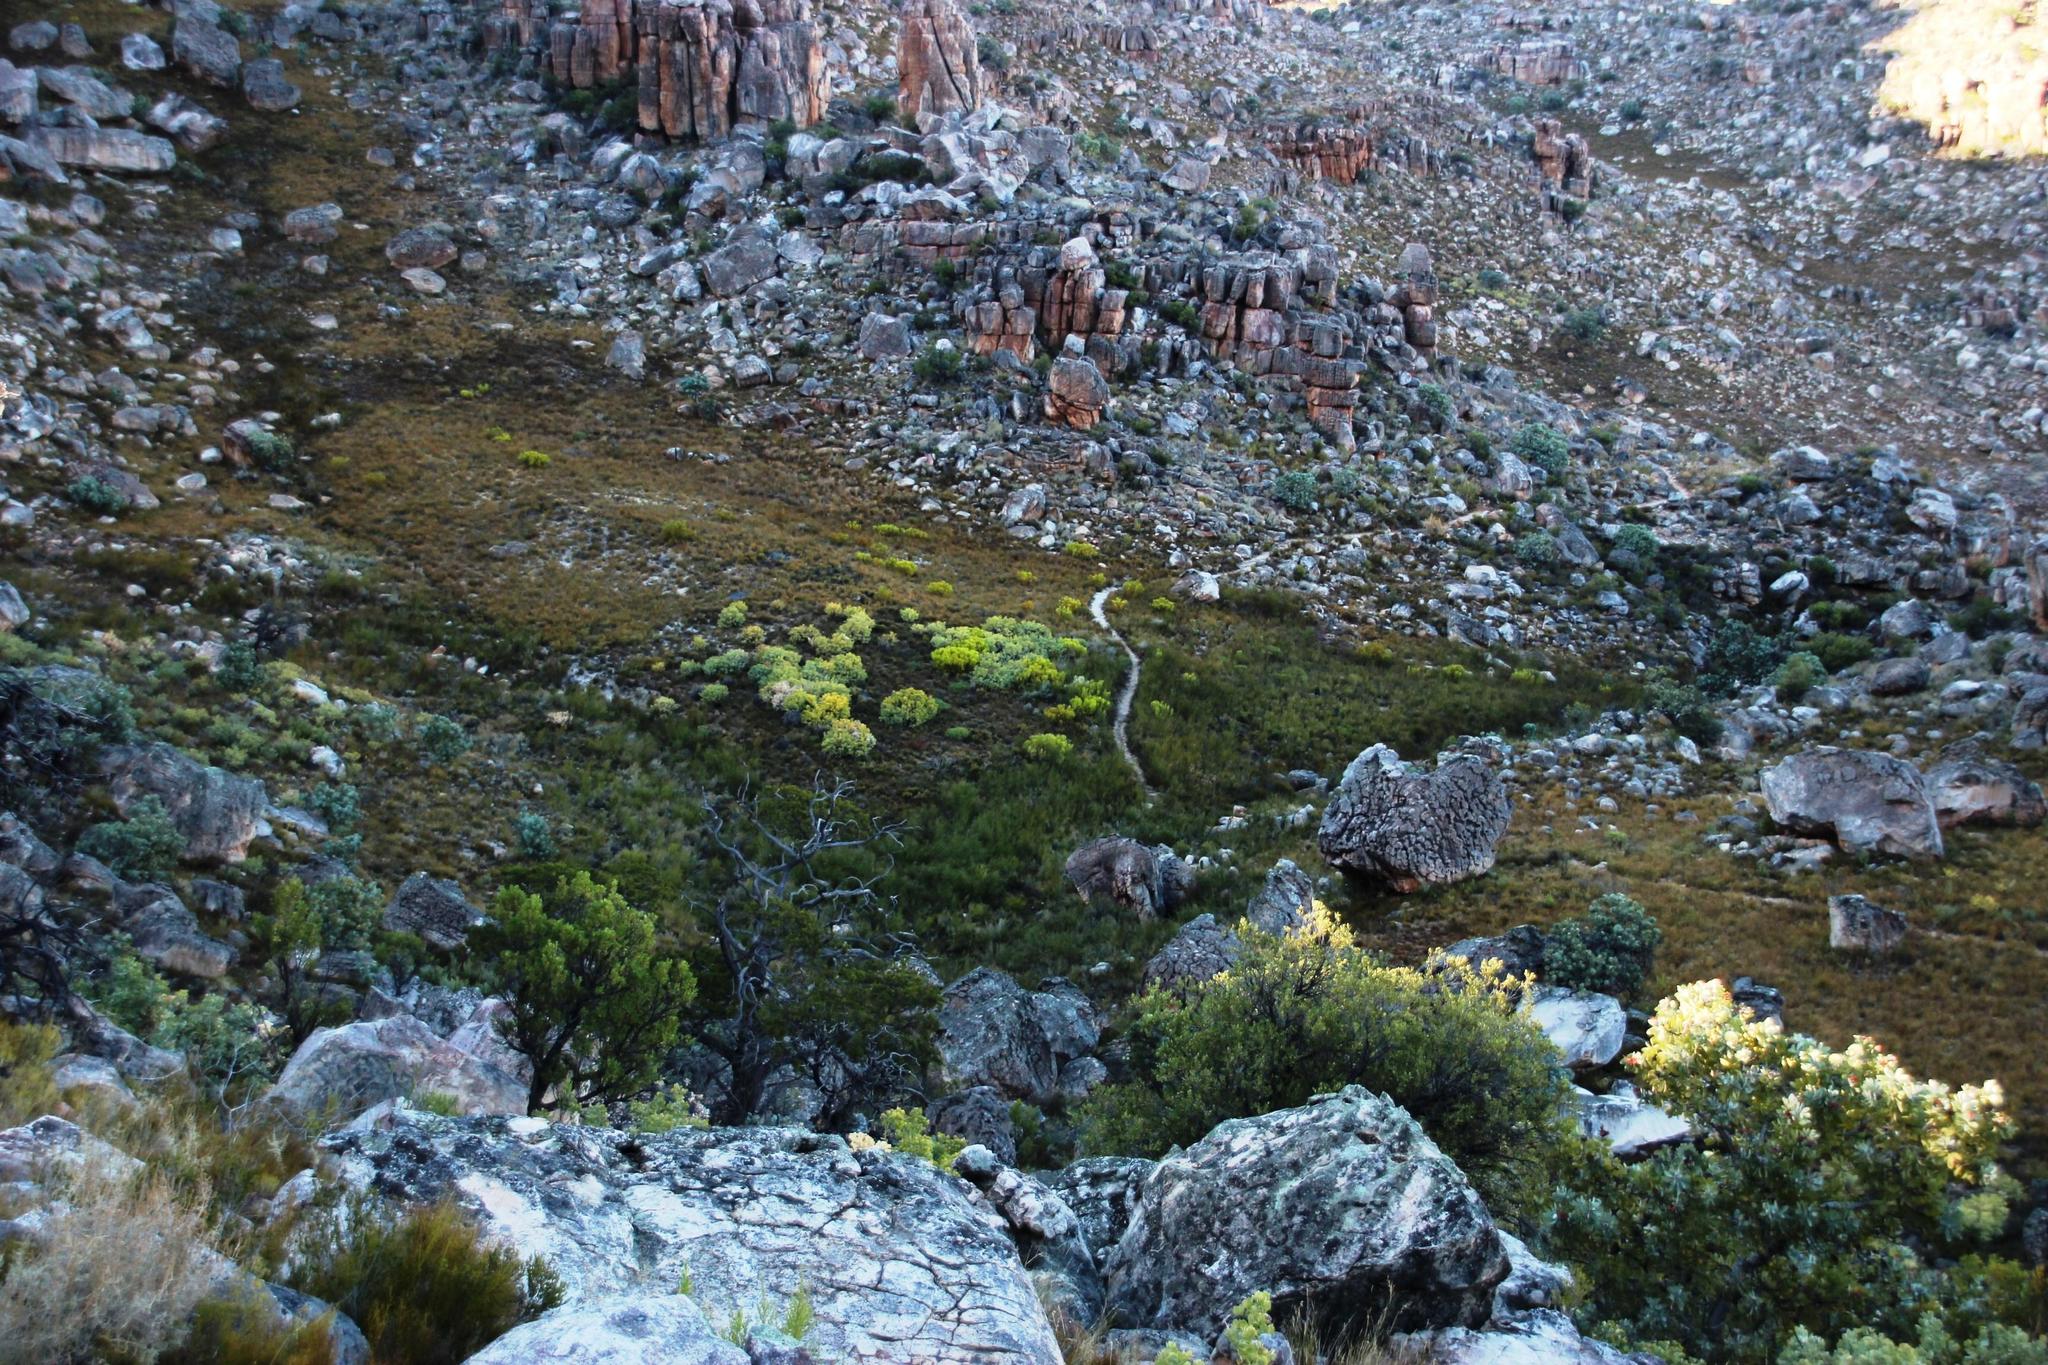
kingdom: Plantae
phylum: Tracheophyta
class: Magnoliopsida
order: Proteales
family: Proteaceae
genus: Leucospermum
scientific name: Leucospermum catherinae
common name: Catherine-wheel pincushion
